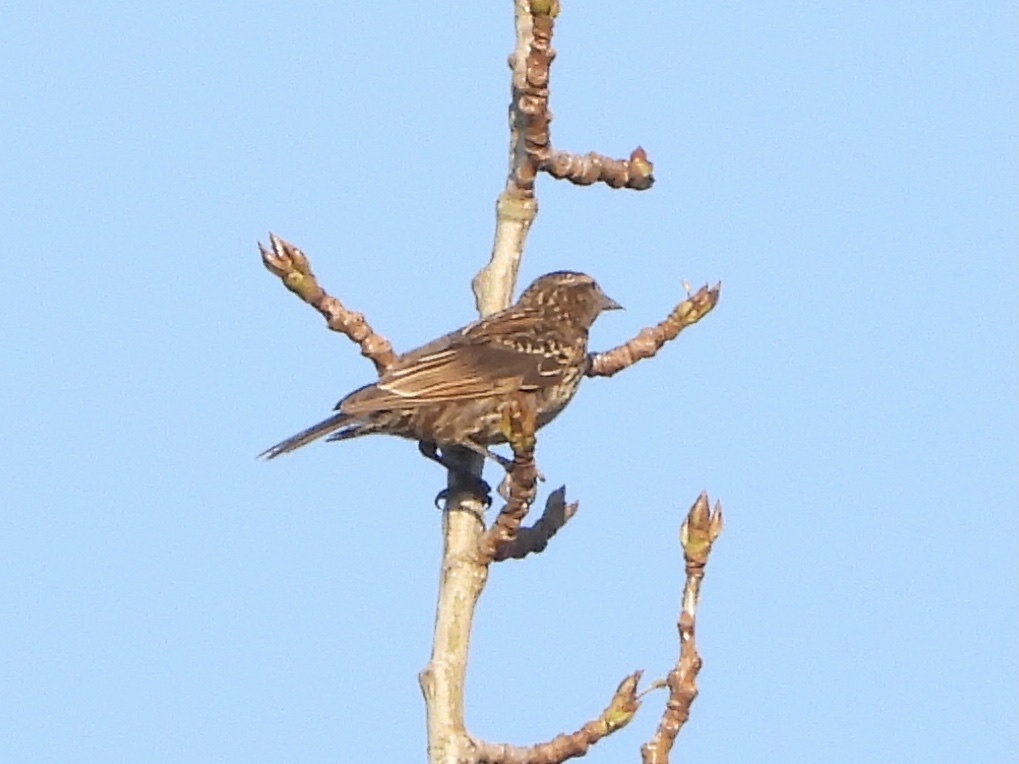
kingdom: Animalia
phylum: Chordata
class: Aves
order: Passeriformes
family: Icteridae
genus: Agelaius
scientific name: Agelaius phoeniceus
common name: Red-winged blackbird
